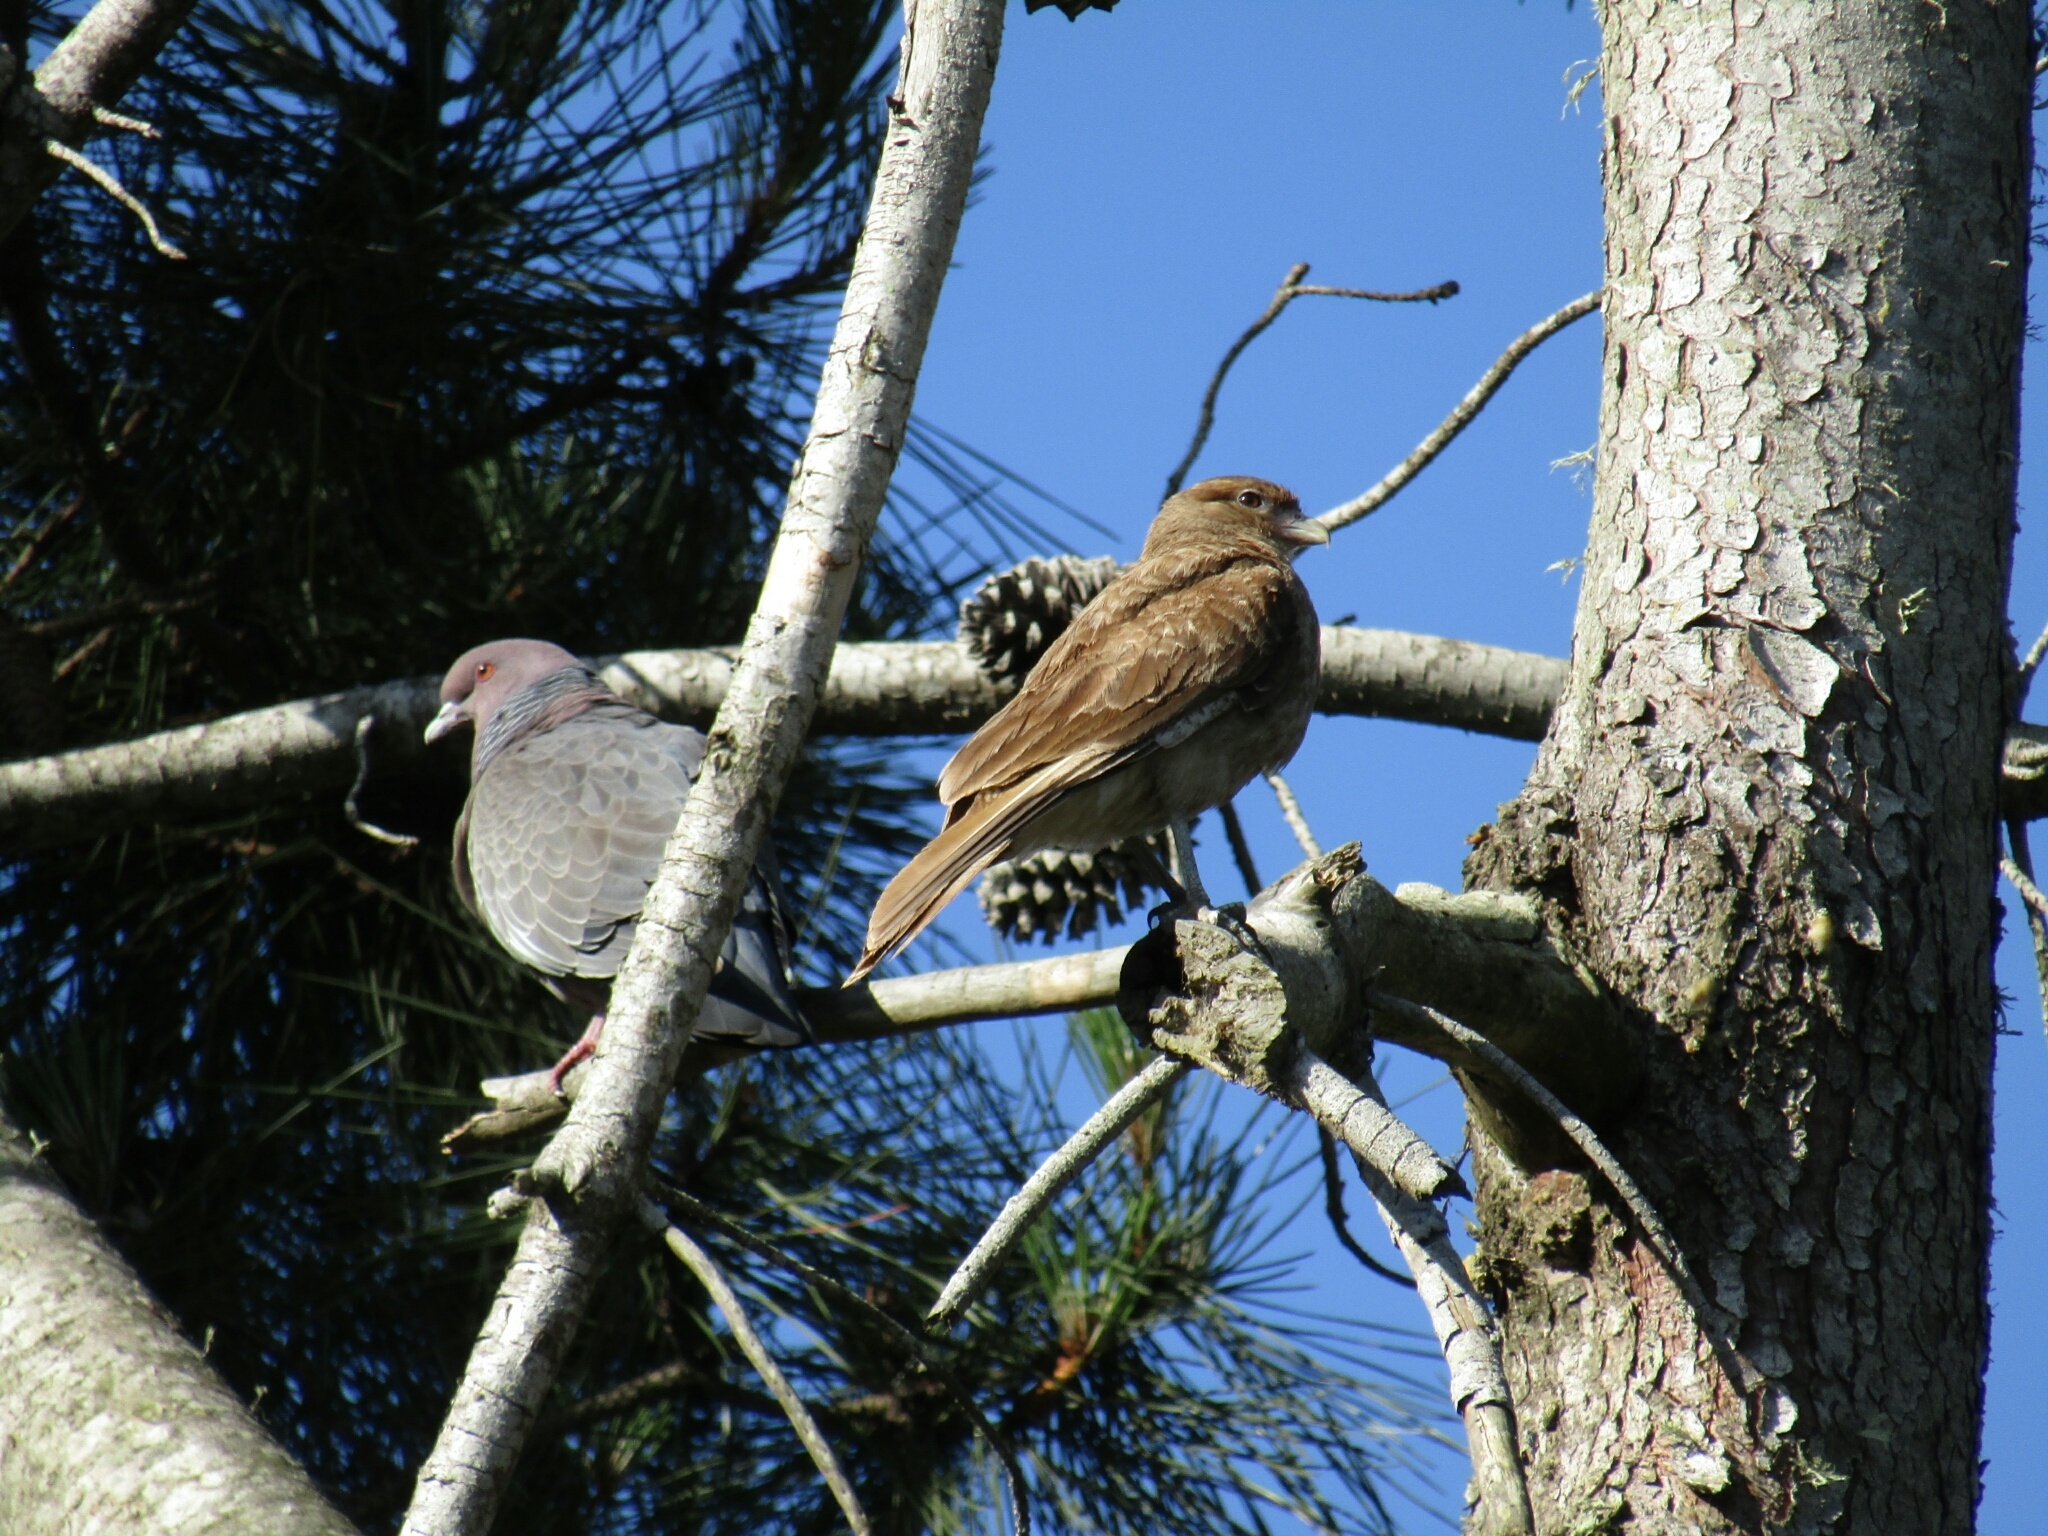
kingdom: Animalia
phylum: Chordata
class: Aves
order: Columbiformes
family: Columbidae
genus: Patagioenas
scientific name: Patagioenas picazuro
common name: Picazuro pigeon
